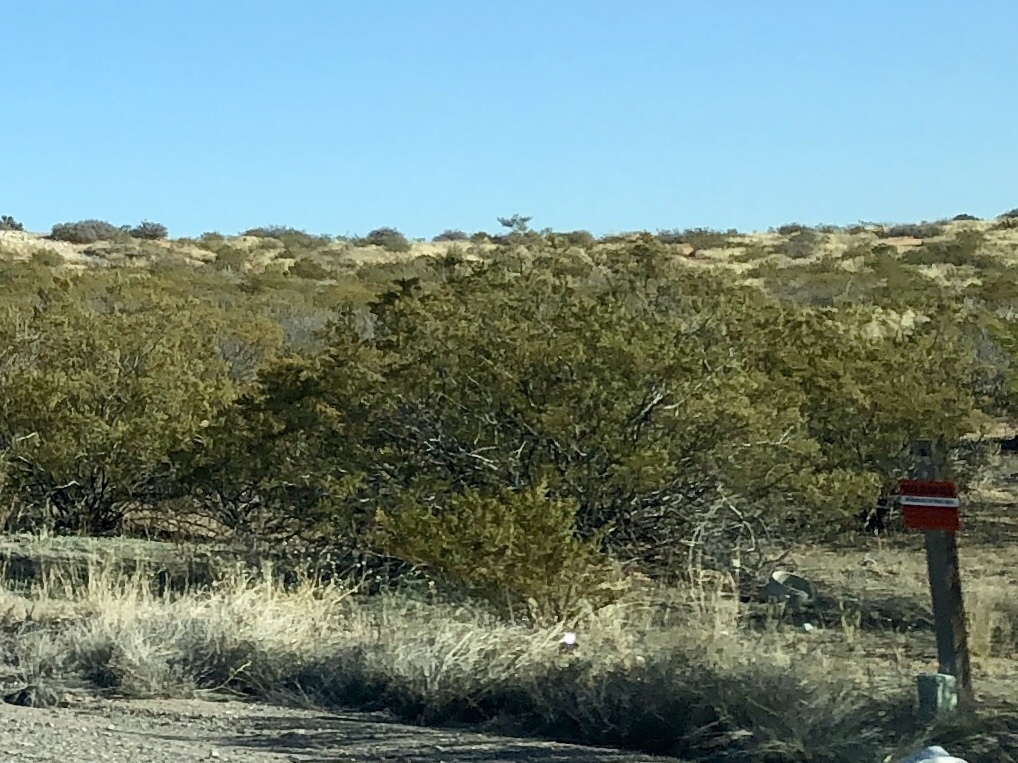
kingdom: Plantae
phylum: Tracheophyta
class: Magnoliopsida
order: Zygophyllales
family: Zygophyllaceae
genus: Larrea
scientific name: Larrea tridentata
